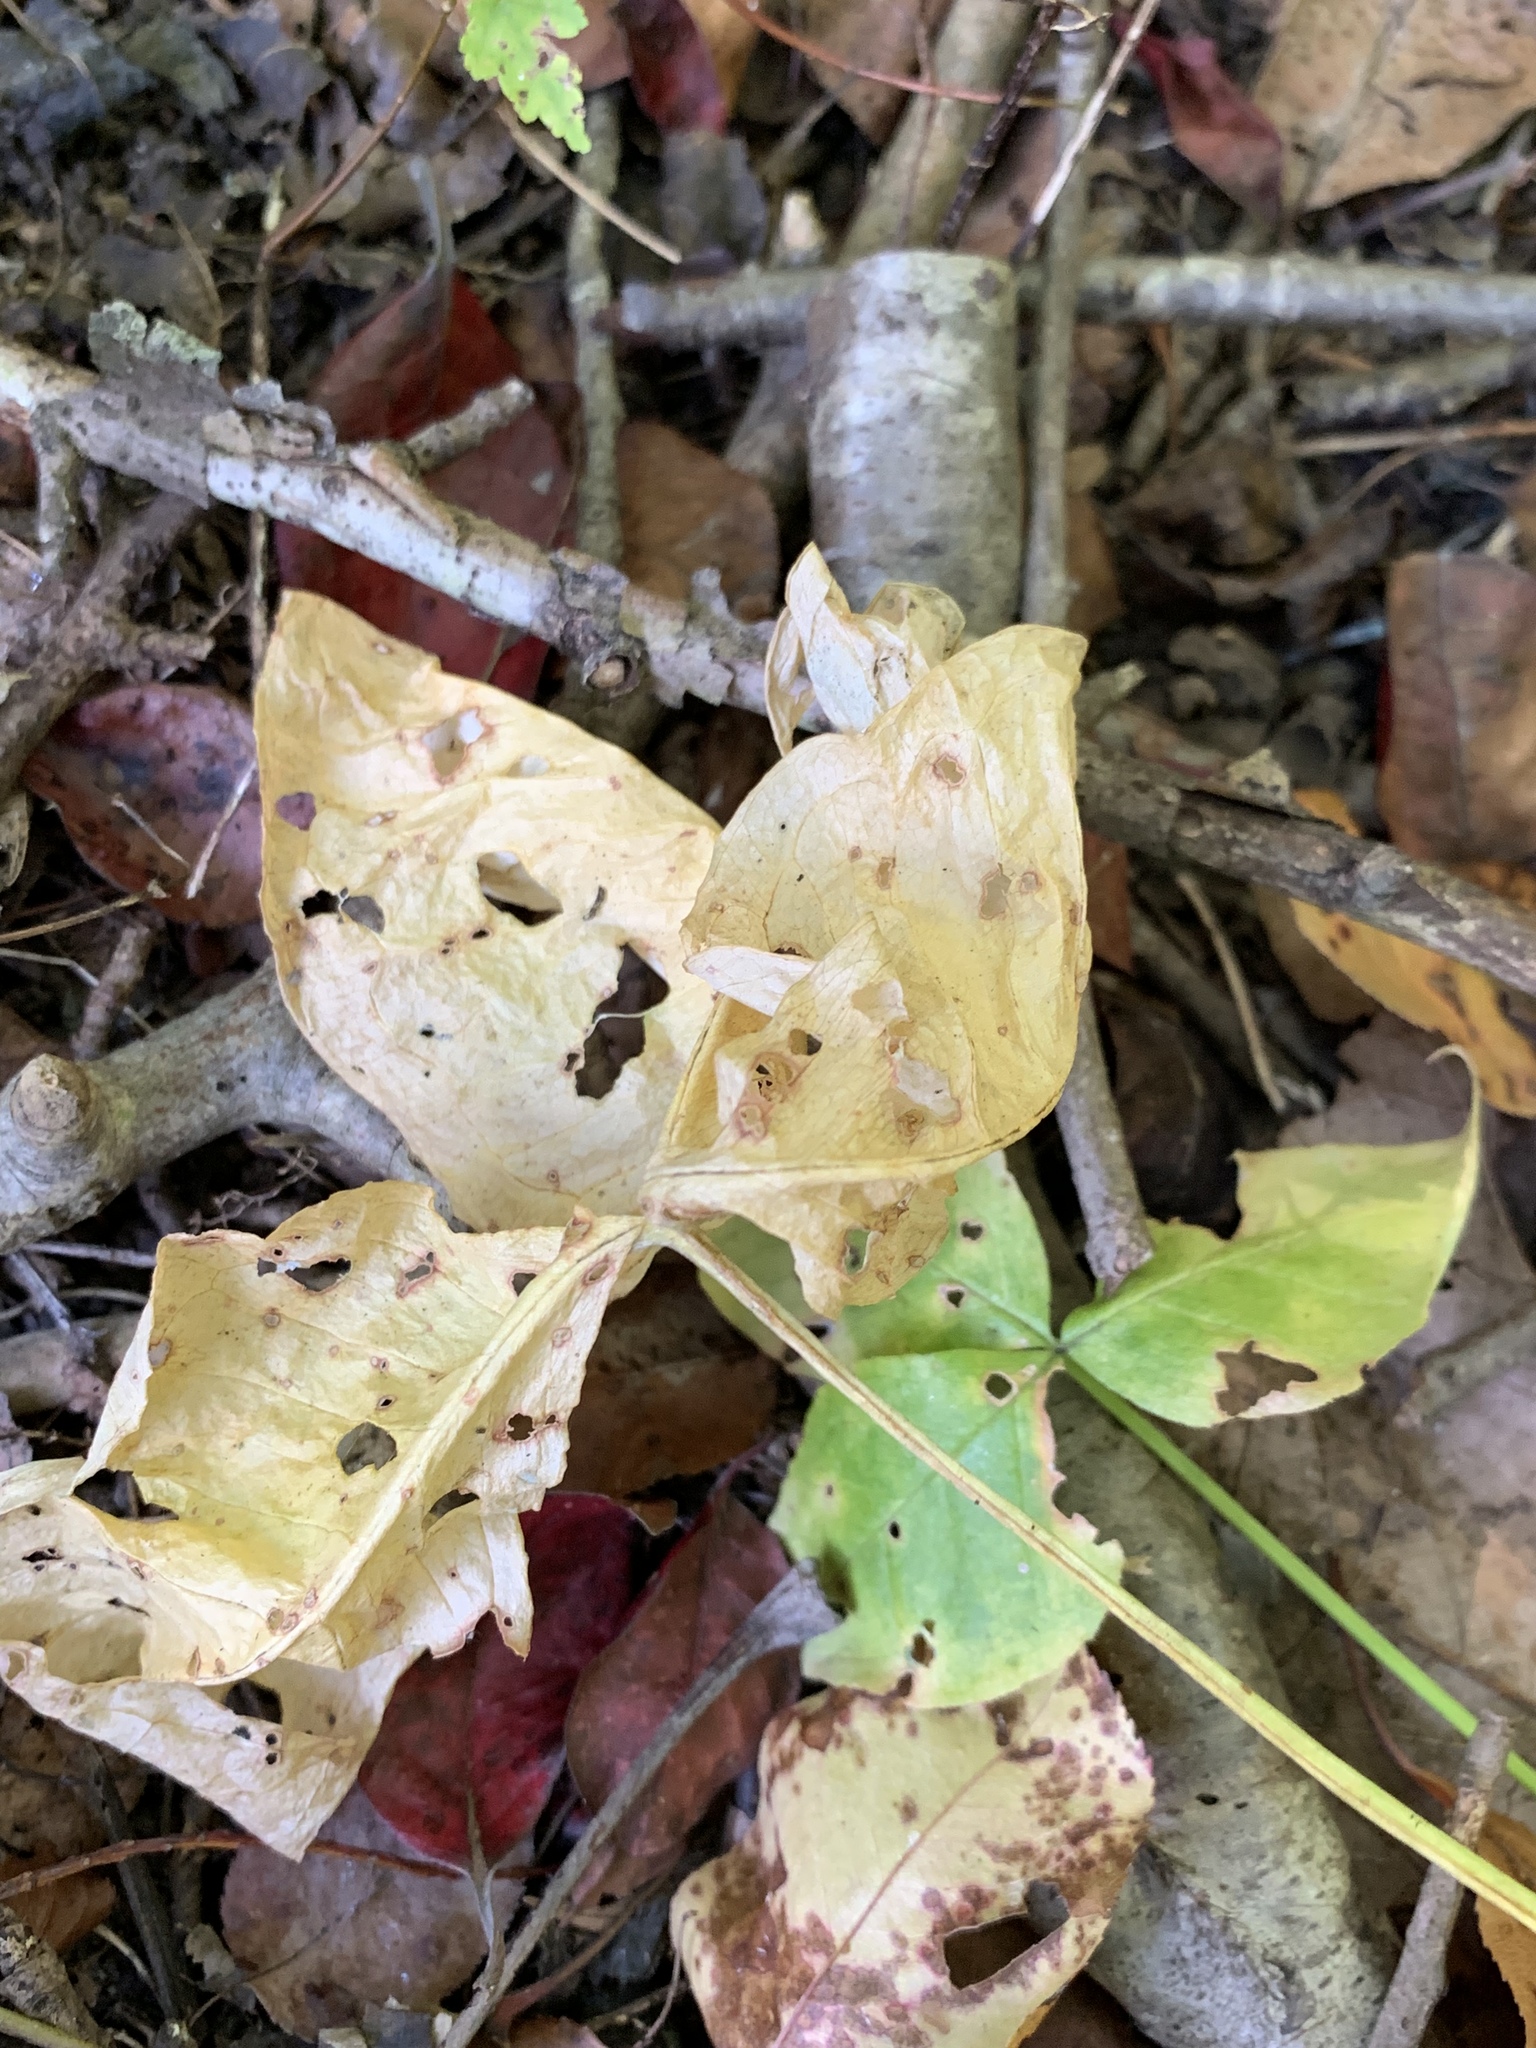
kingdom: Plantae
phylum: Tracheophyta
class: Liliopsida
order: Alismatales
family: Araceae
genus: Arisaema
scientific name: Arisaema triphyllum
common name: Jack-in-the-pulpit
